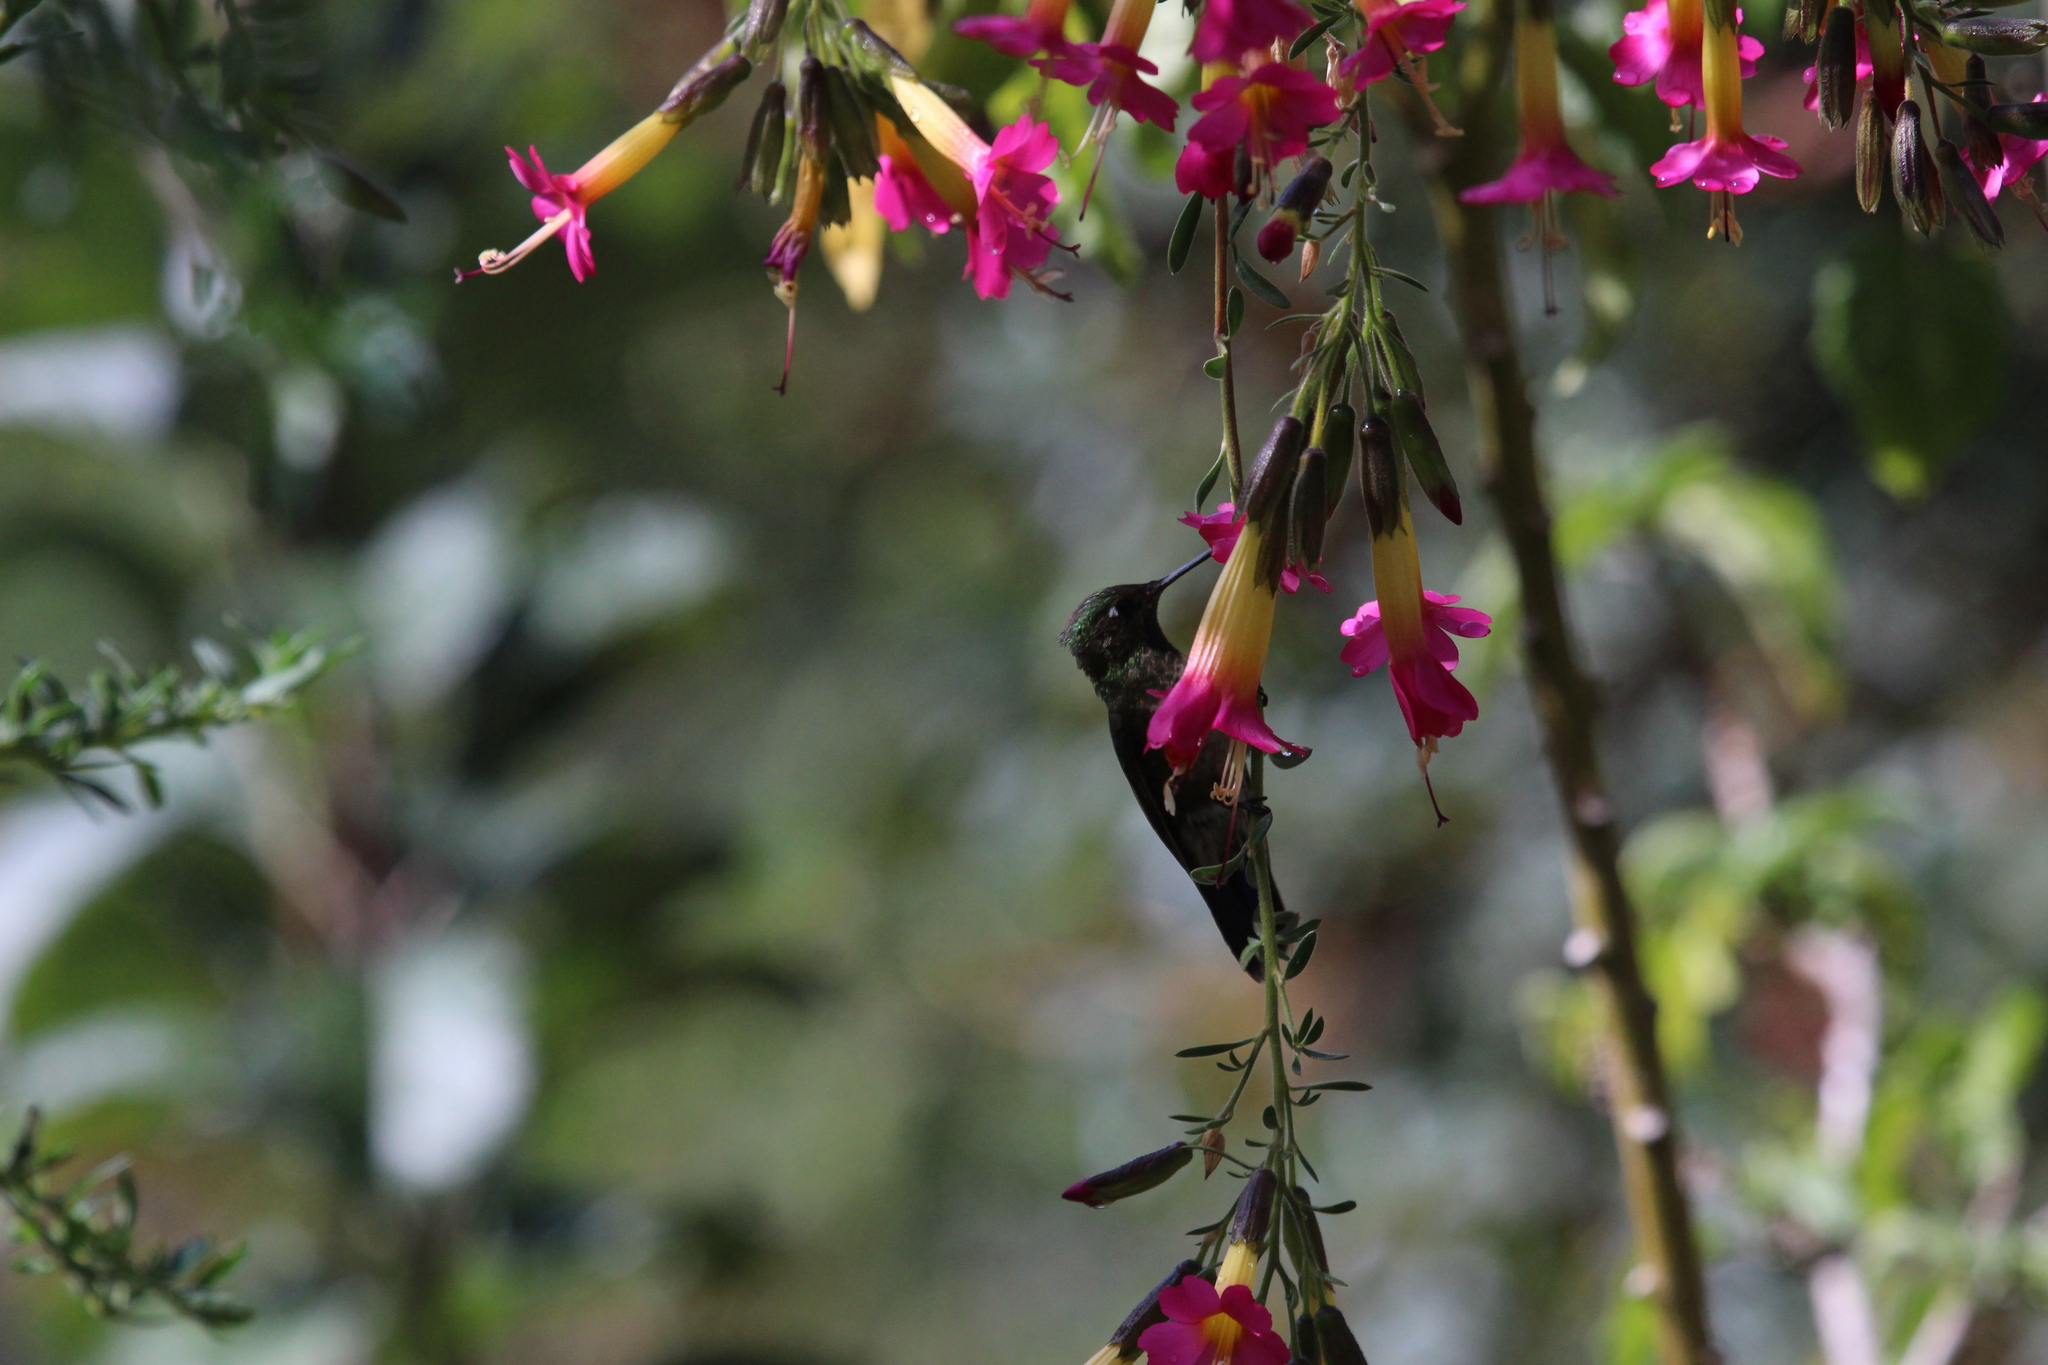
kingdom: Plantae
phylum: Tracheophyta
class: Magnoliopsida
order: Ericales
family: Polemoniaceae
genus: Cantua
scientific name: Cantua buxifolia
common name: Sacred-flower-of-the-incas
